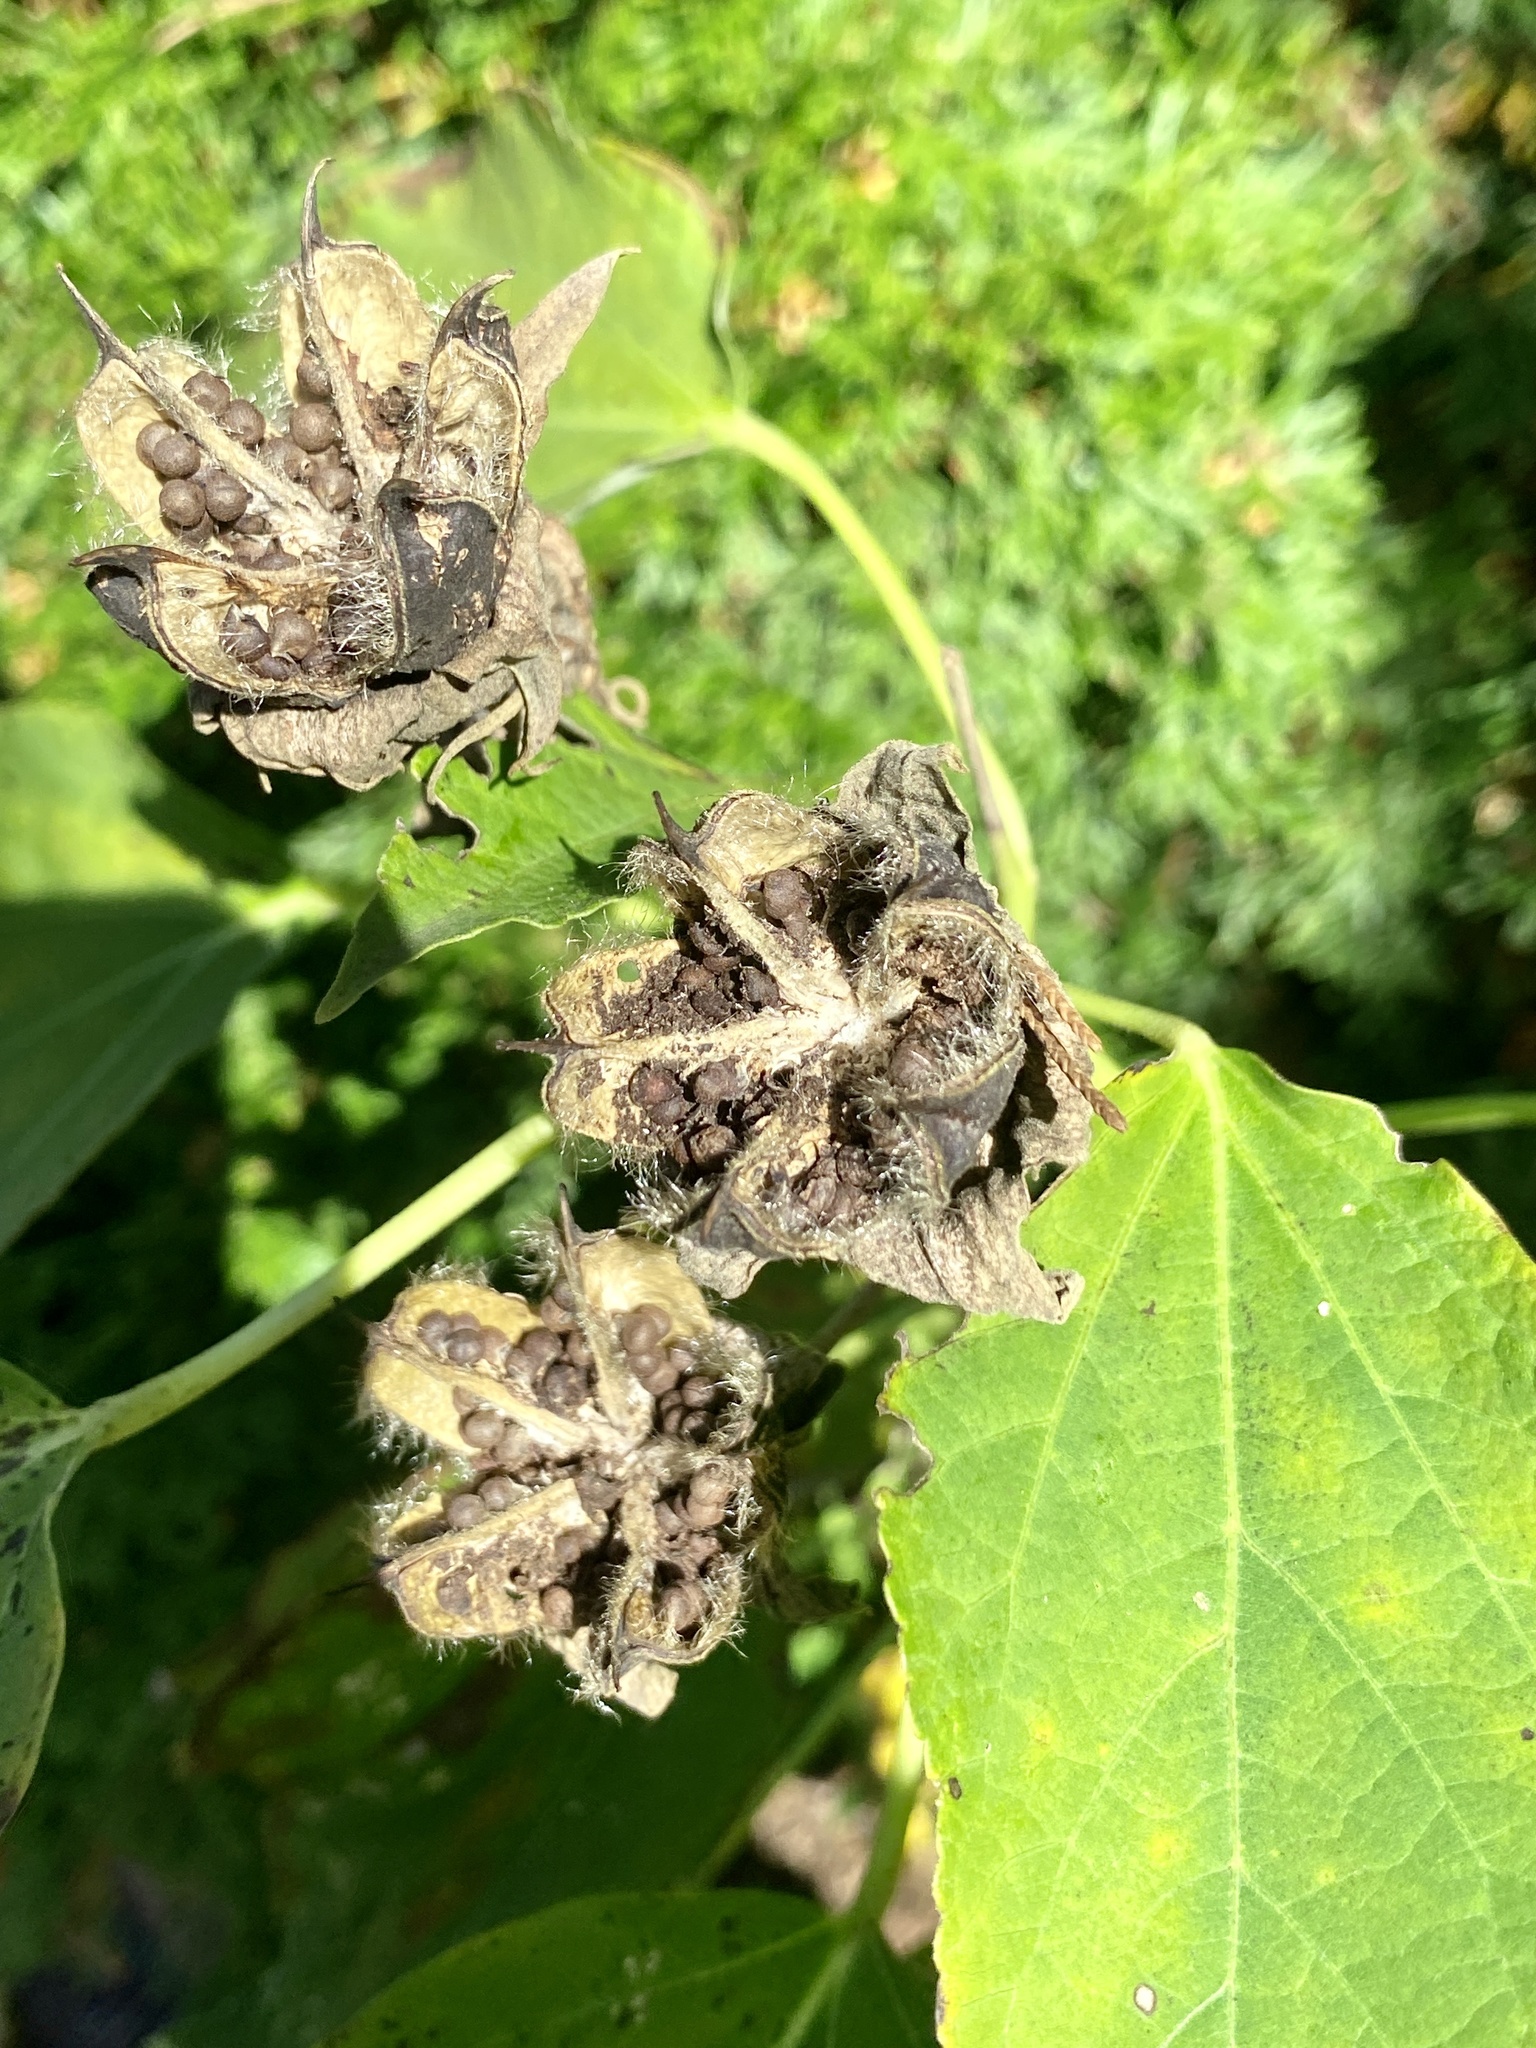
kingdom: Plantae
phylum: Tracheophyta
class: Magnoliopsida
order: Malvales
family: Malvaceae
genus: Hibiscus
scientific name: Hibiscus moscheutos
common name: Common rose-mallow
